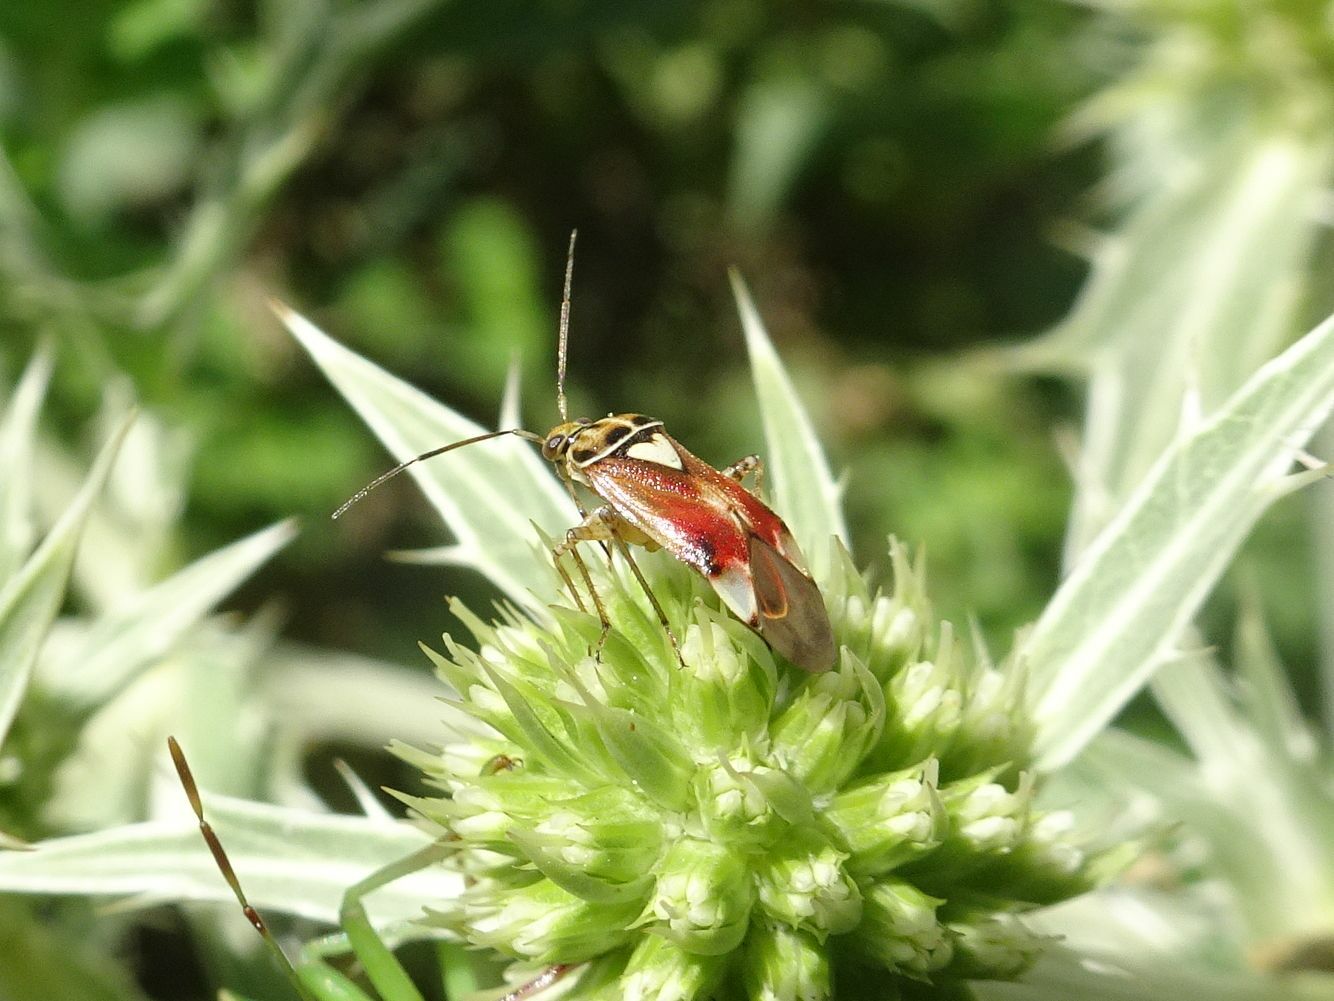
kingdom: Animalia
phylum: Arthropoda
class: Insecta
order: Hemiptera
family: Miridae
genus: Lygus
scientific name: Lygus pratensis
